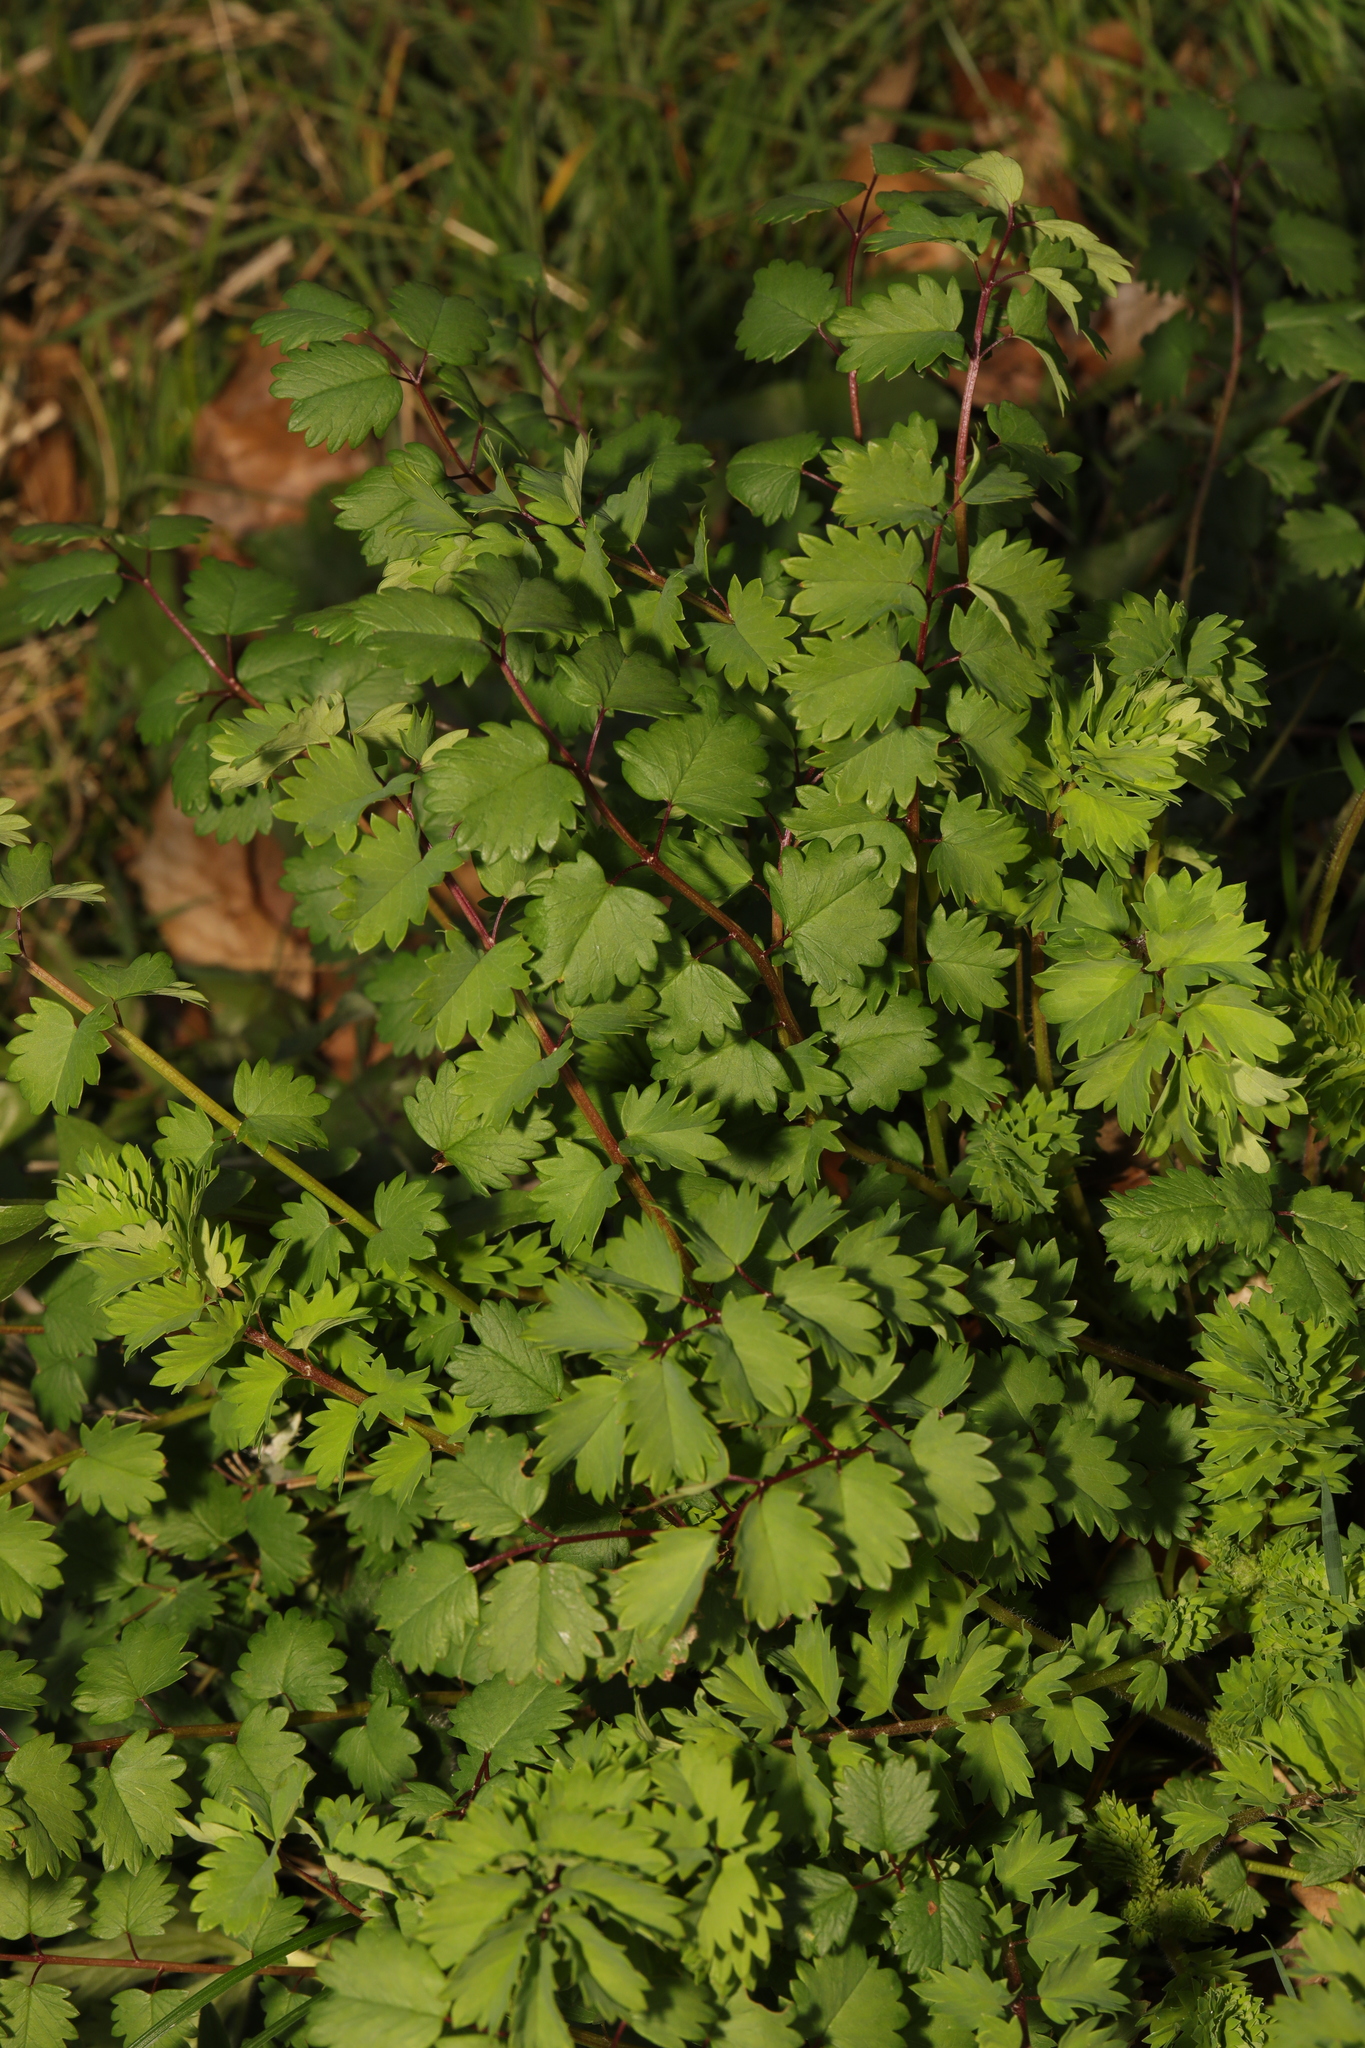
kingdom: Plantae
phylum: Tracheophyta
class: Magnoliopsida
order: Rosales
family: Rosaceae
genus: Poterium
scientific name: Poterium sanguisorba
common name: Salad burnet
